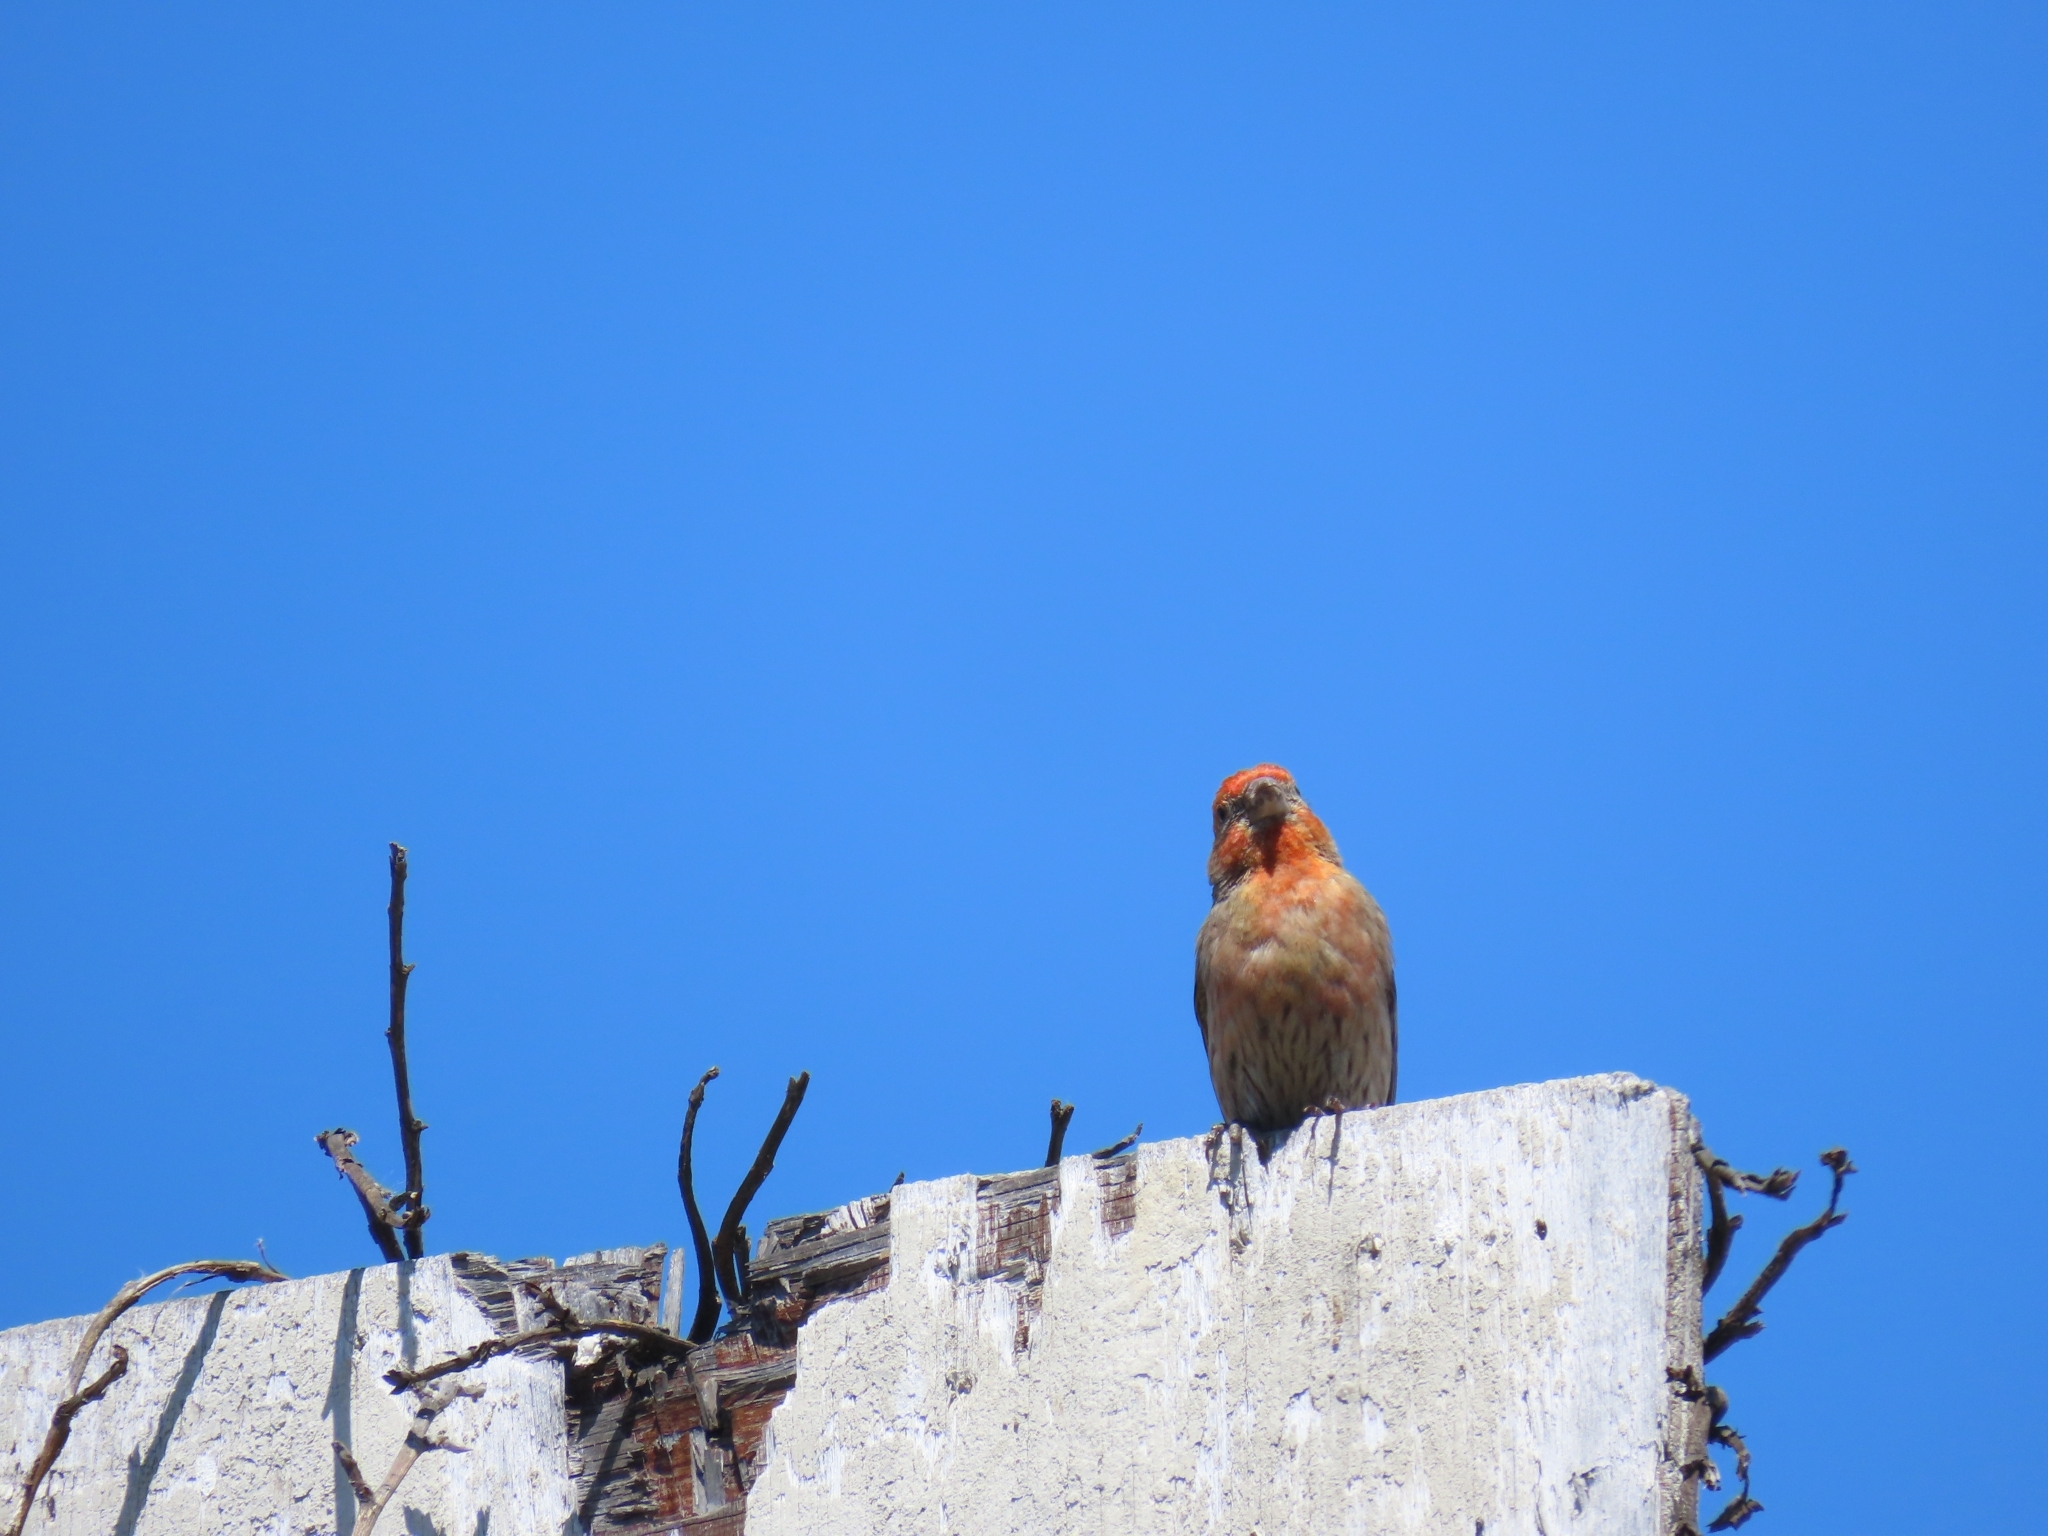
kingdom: Animalia
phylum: Chordata
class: Aves
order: Passeriformes
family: Fringillidae
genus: Haemorhous
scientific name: Haemorhous mexicanus
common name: House finch
